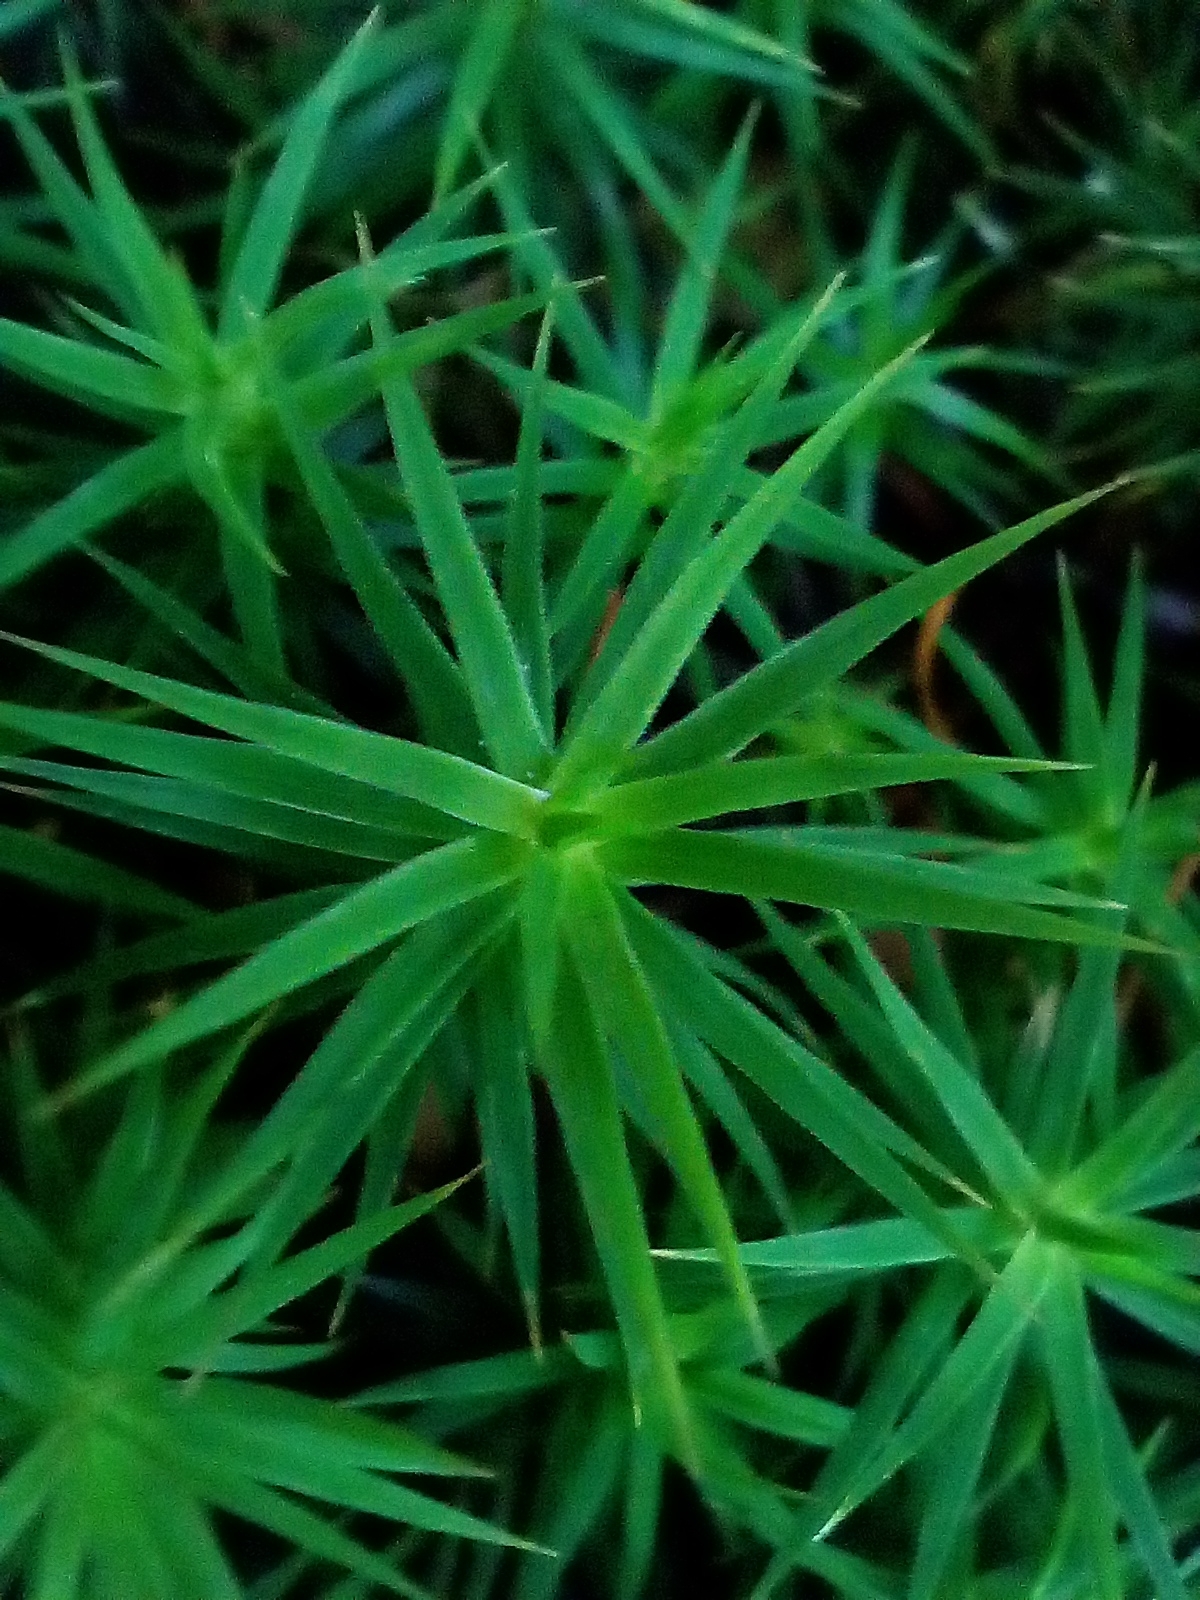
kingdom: Plantae
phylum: Bryophyta
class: Polytrichopsida
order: Polytrichales
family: Polytrichaceae
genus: Polytrichum
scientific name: Polytrichum formosum
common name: Bank haircap moss
